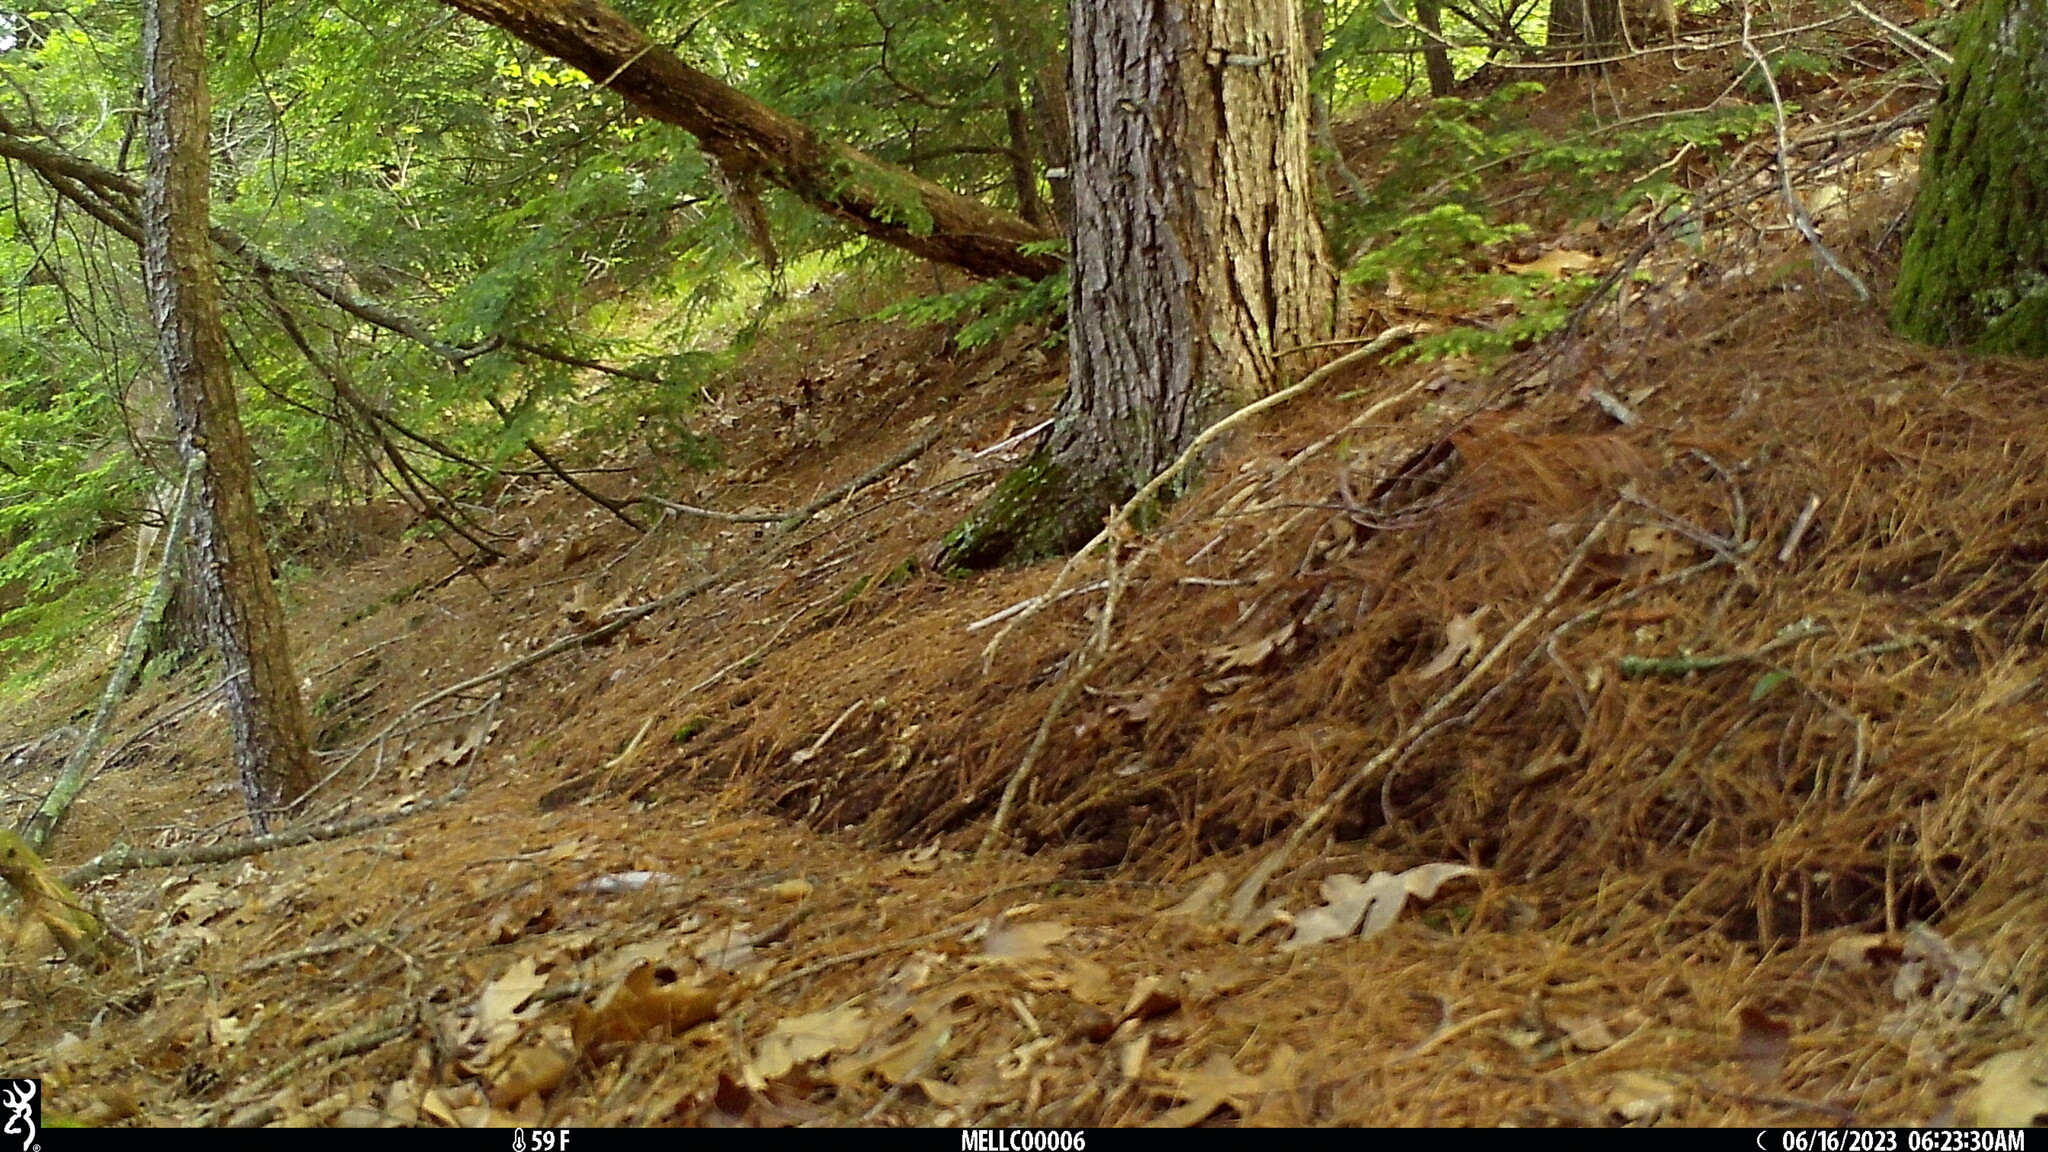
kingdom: Animalia
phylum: Chordata
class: Mammalia
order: Artiodactyla
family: Cervidae
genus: Odocoileus
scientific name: Odocoileus virginianus
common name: White-tailed deer
